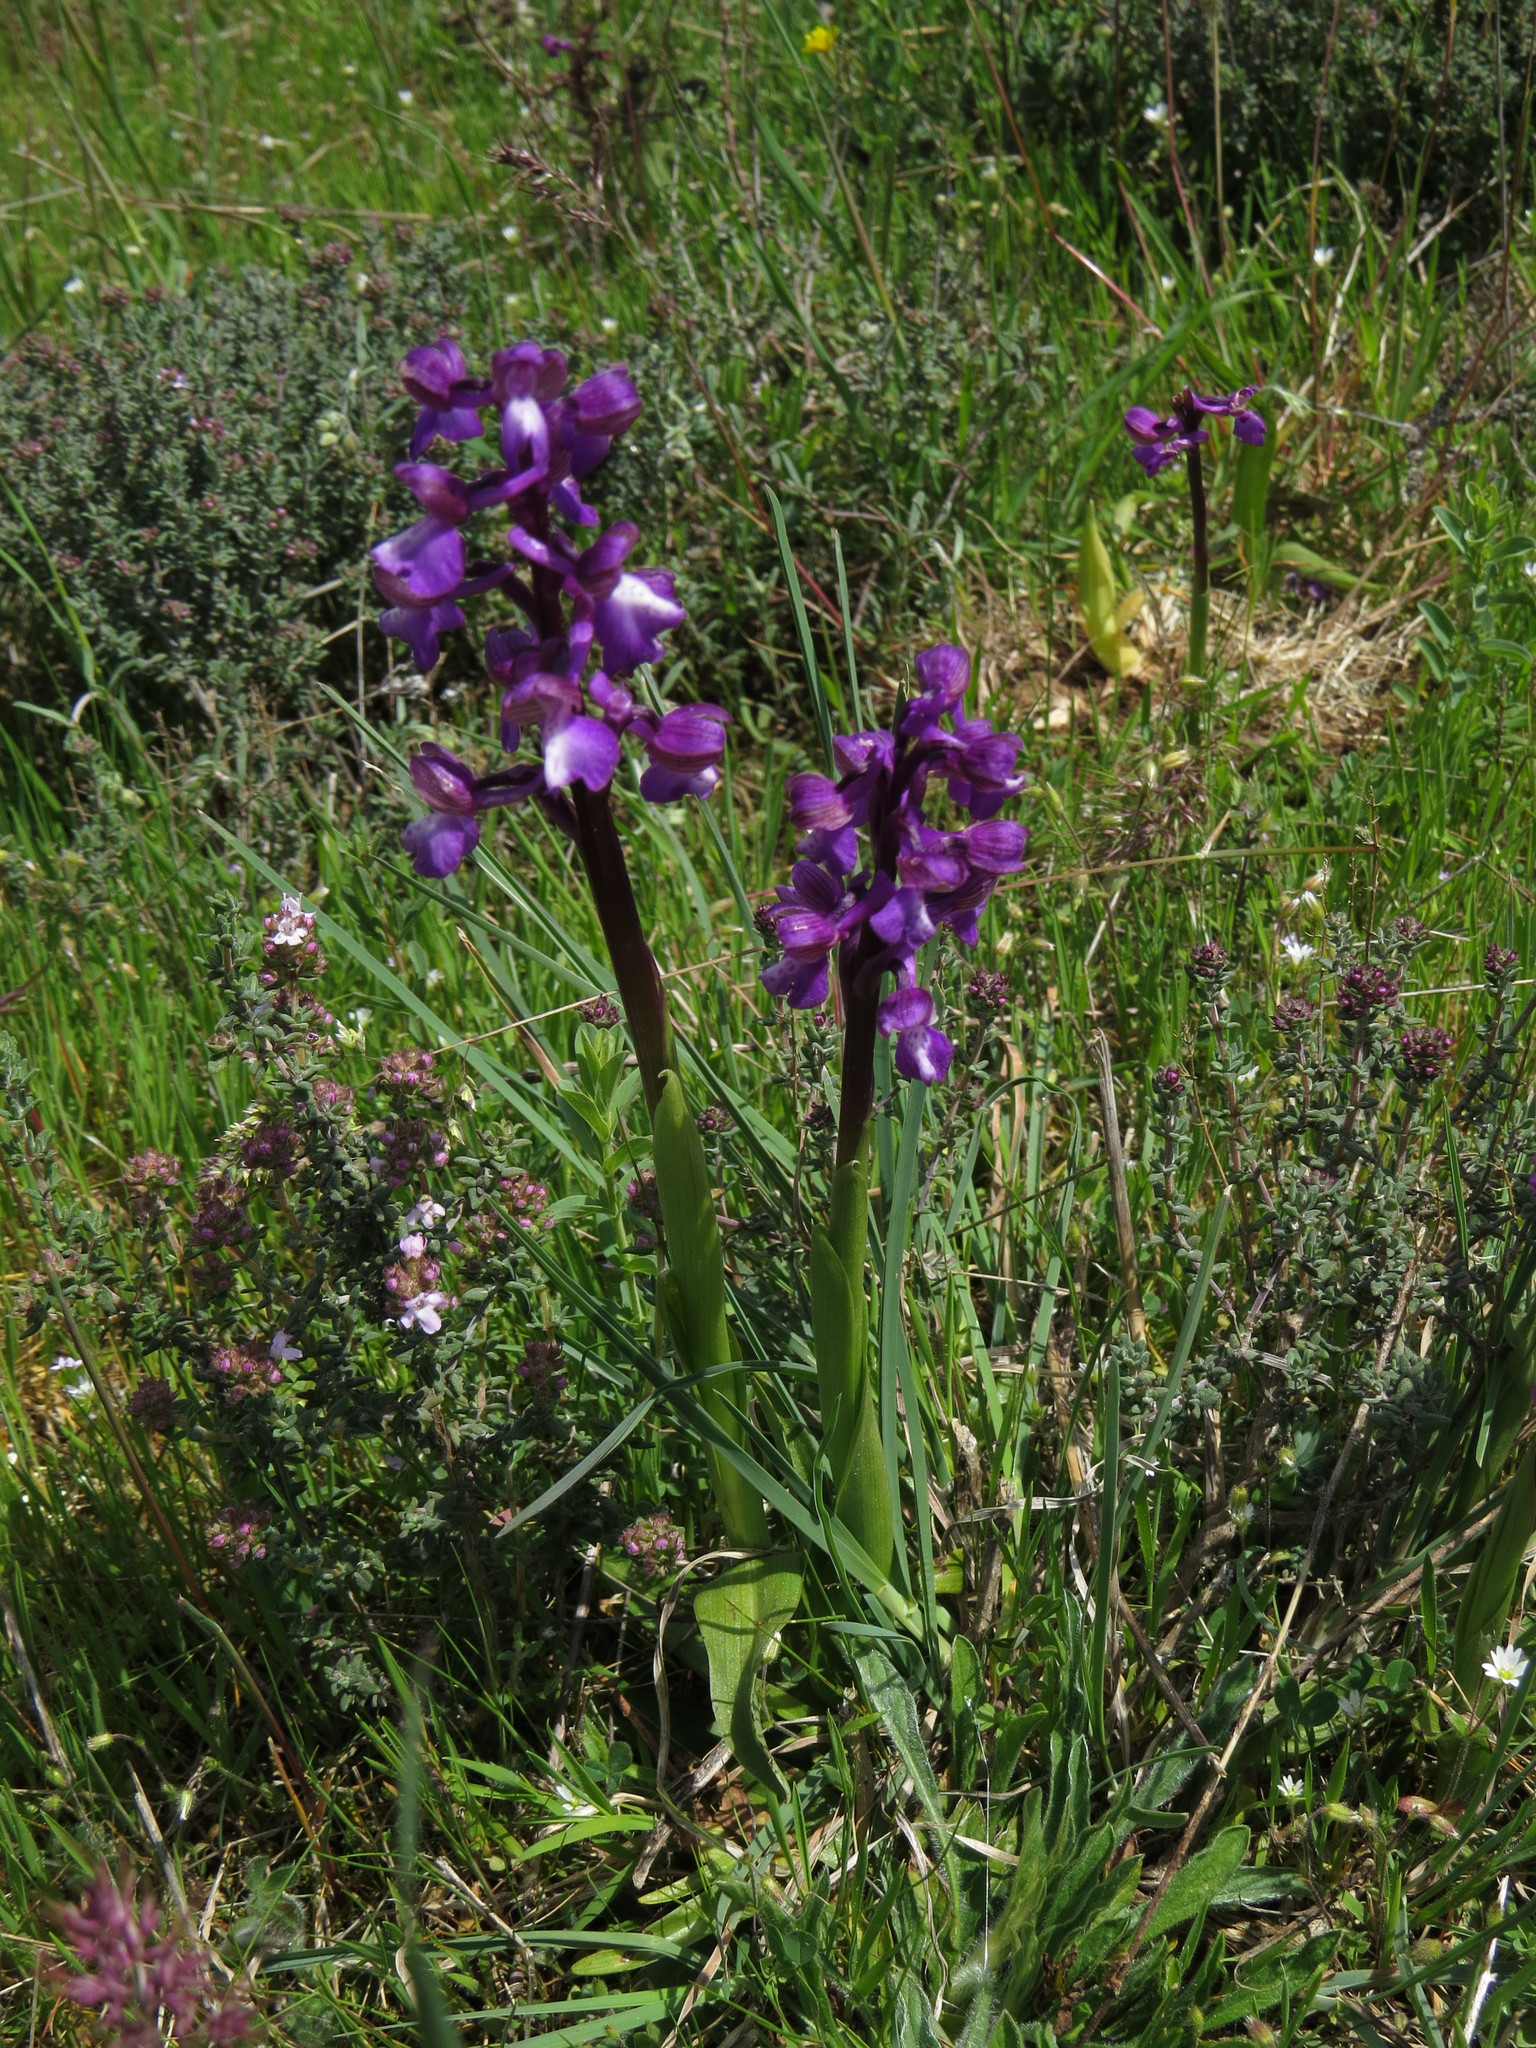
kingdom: Plantae
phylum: Tracheophyta
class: Liliopsida
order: Asparagales
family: Orchidaceae
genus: Anacamptis
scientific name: Anacamptis morio
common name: Green-winged orchid
